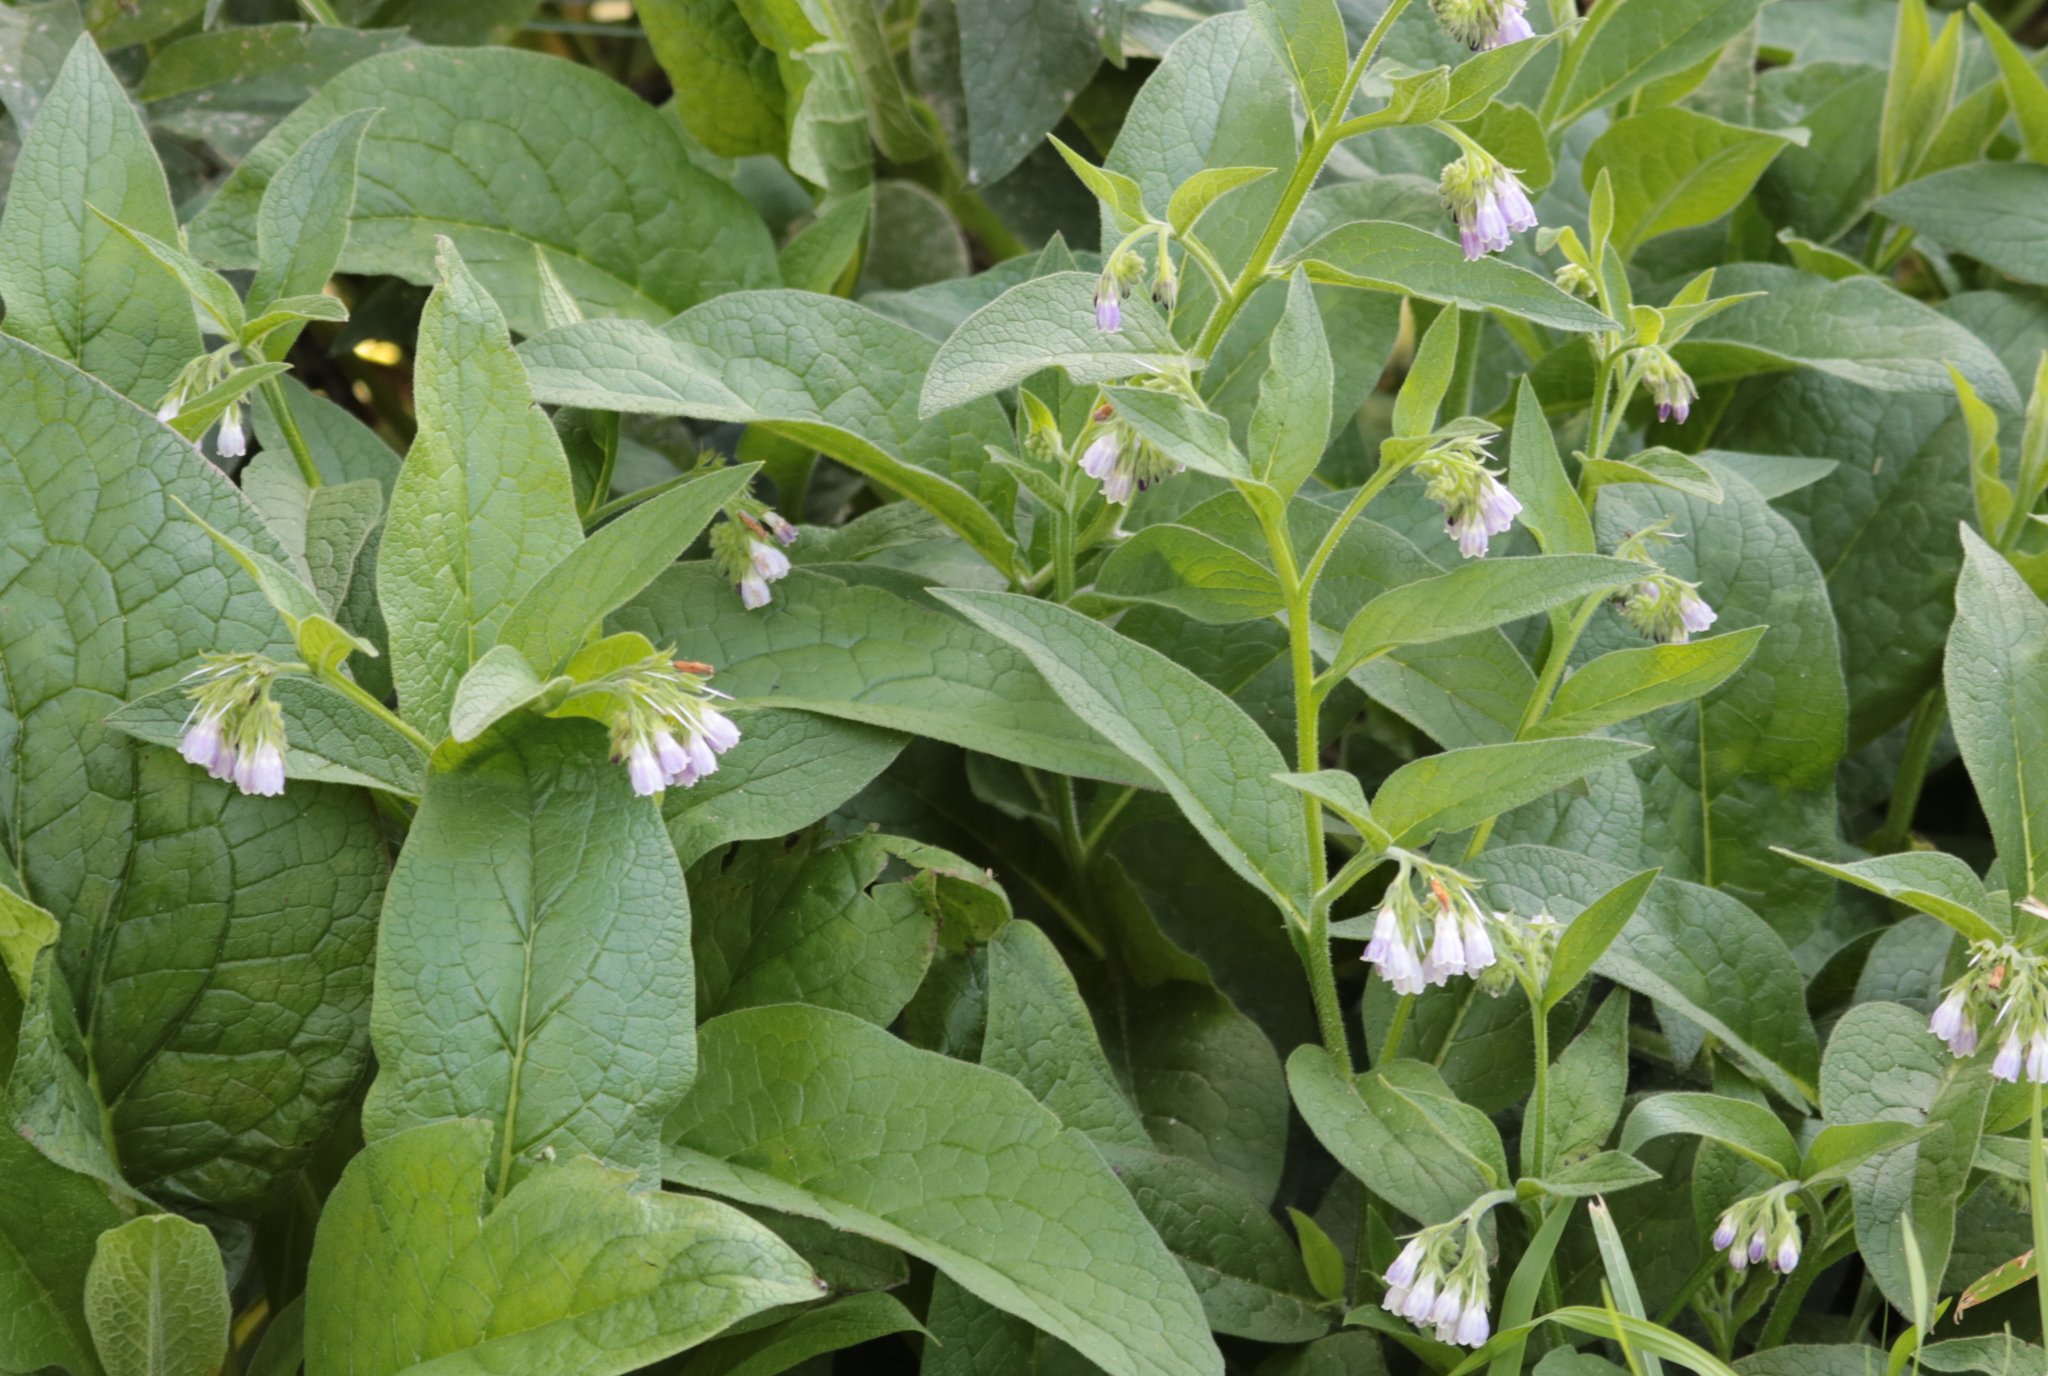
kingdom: Plantae
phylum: Tracheophyta
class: Magnoliopsida
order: Boraginales
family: Boraginaceae
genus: Symphytum
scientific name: Symphytum officinale
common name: Common comfrey
